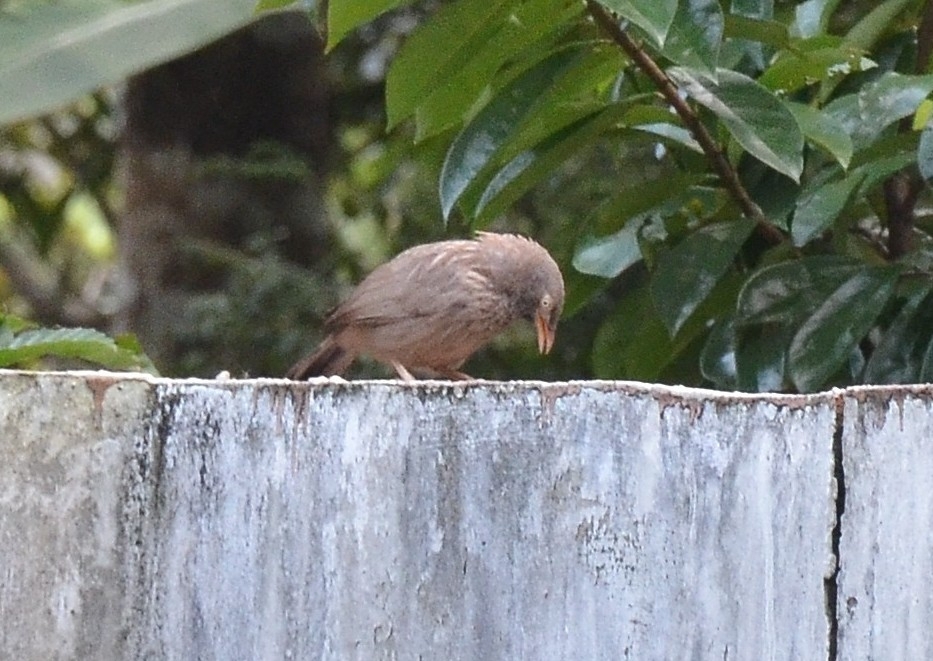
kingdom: Animalia
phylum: Chordata
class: Aves
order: Passeriformes
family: Leiothrichidae
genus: Turdoides
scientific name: Turdoides striata
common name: Jungle babbler
